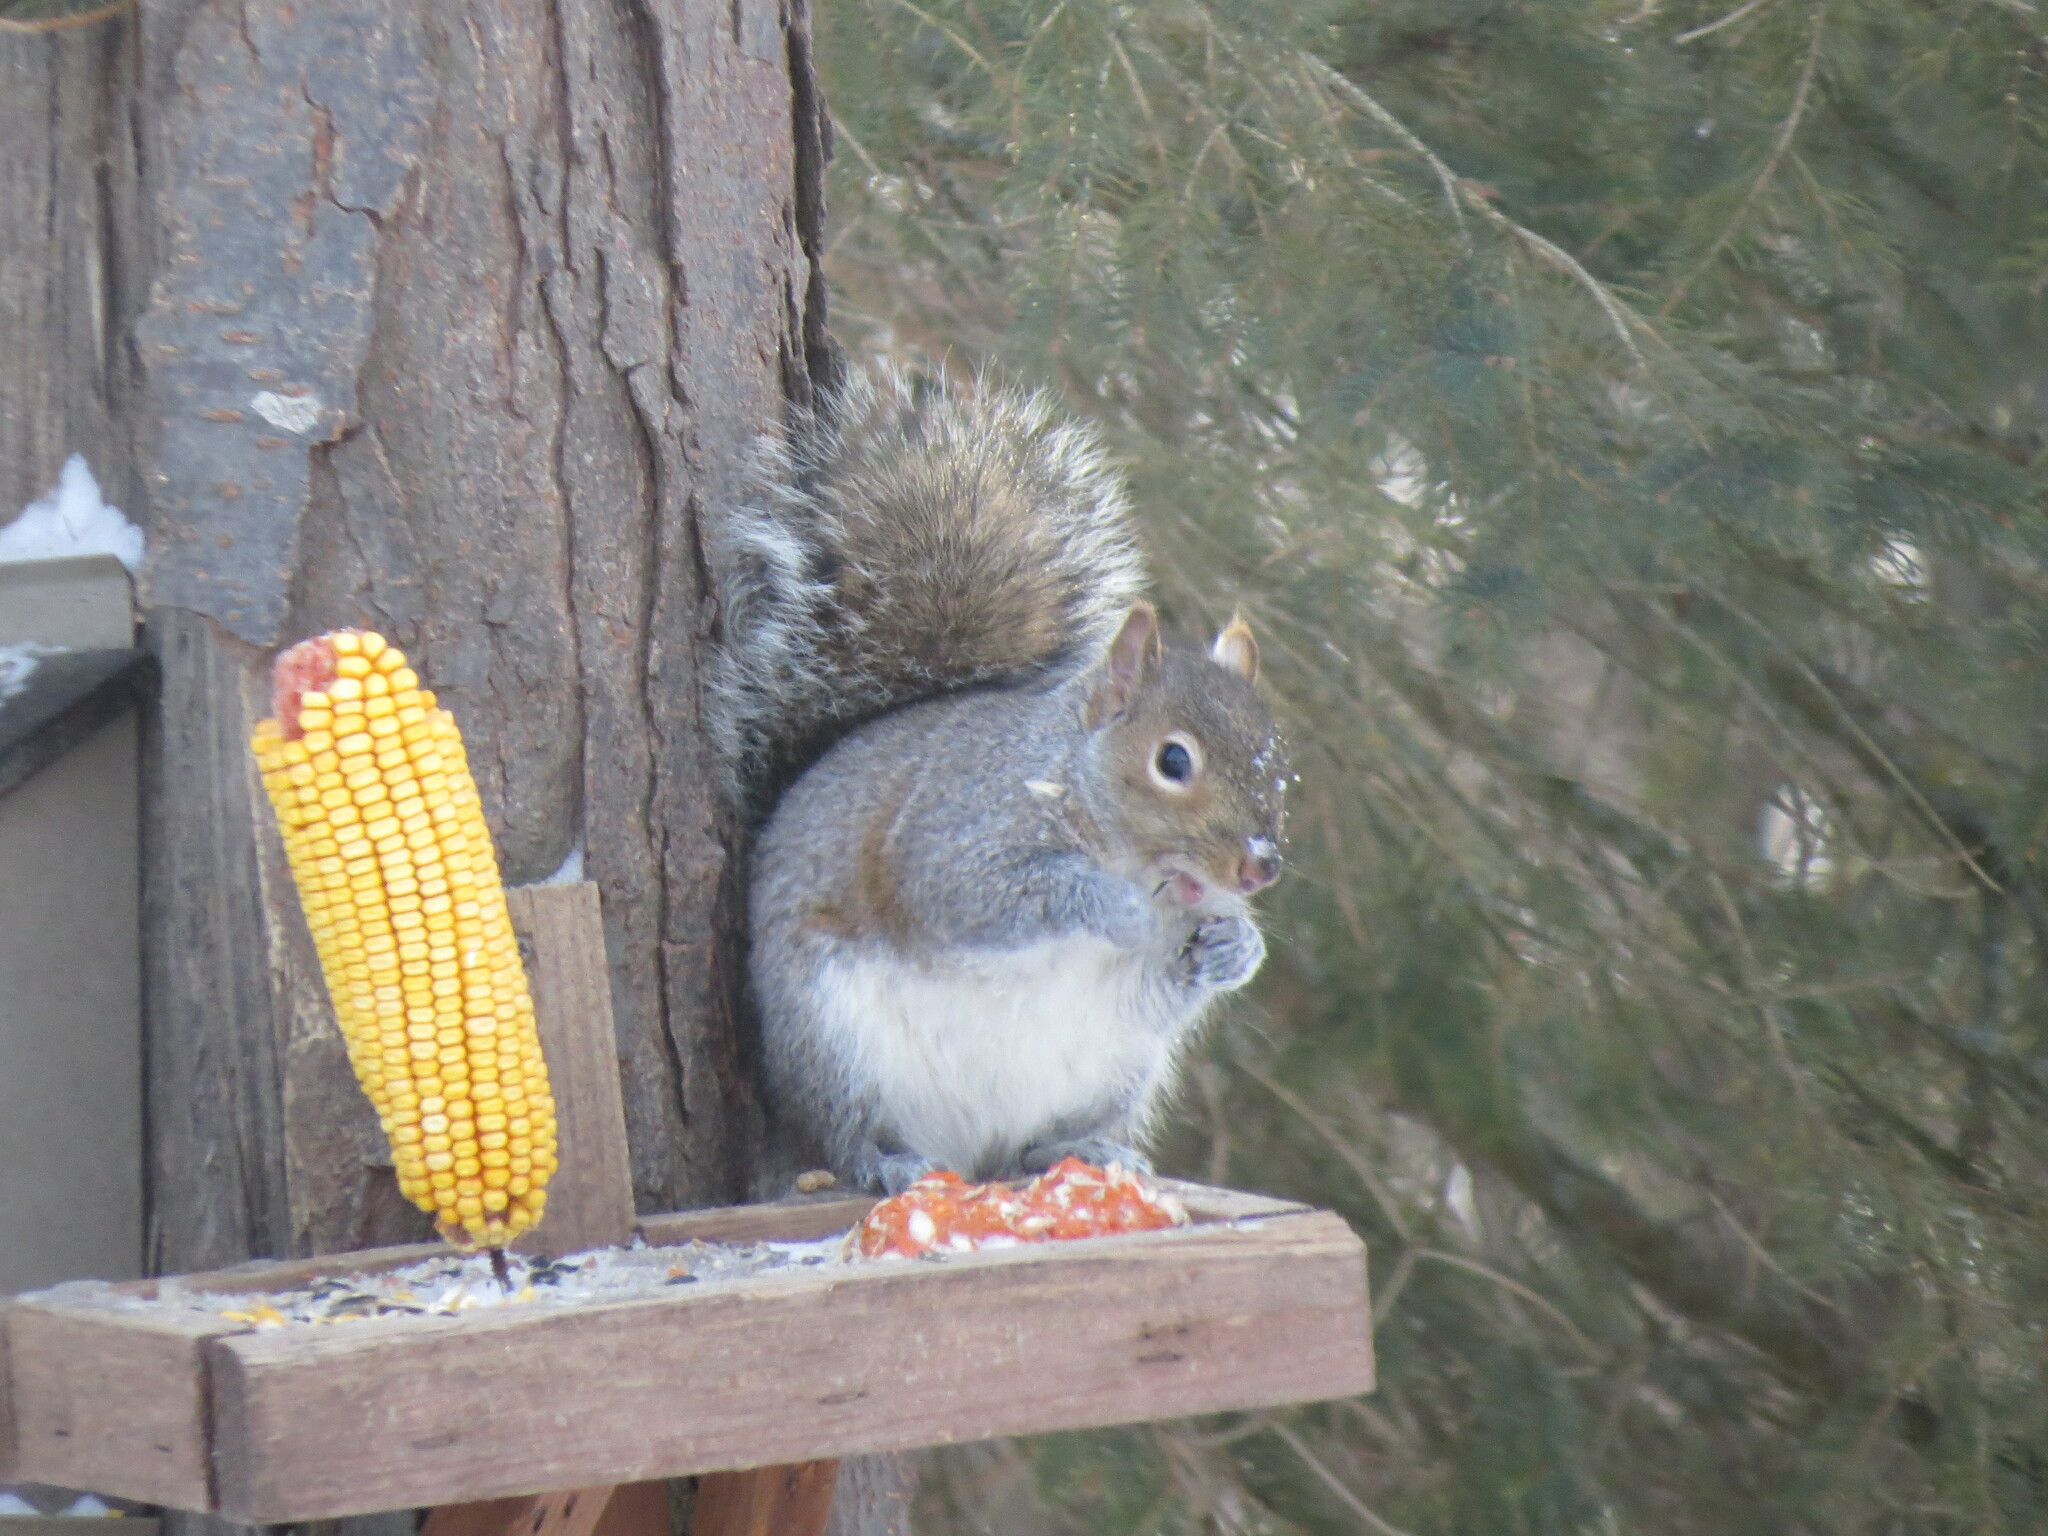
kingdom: Animalia
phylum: Chordata
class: Mammalia
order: Rodentia
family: Sciuridae
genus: Sciurus
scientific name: Sciurus carolinensis
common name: Eastern gray squirrel
